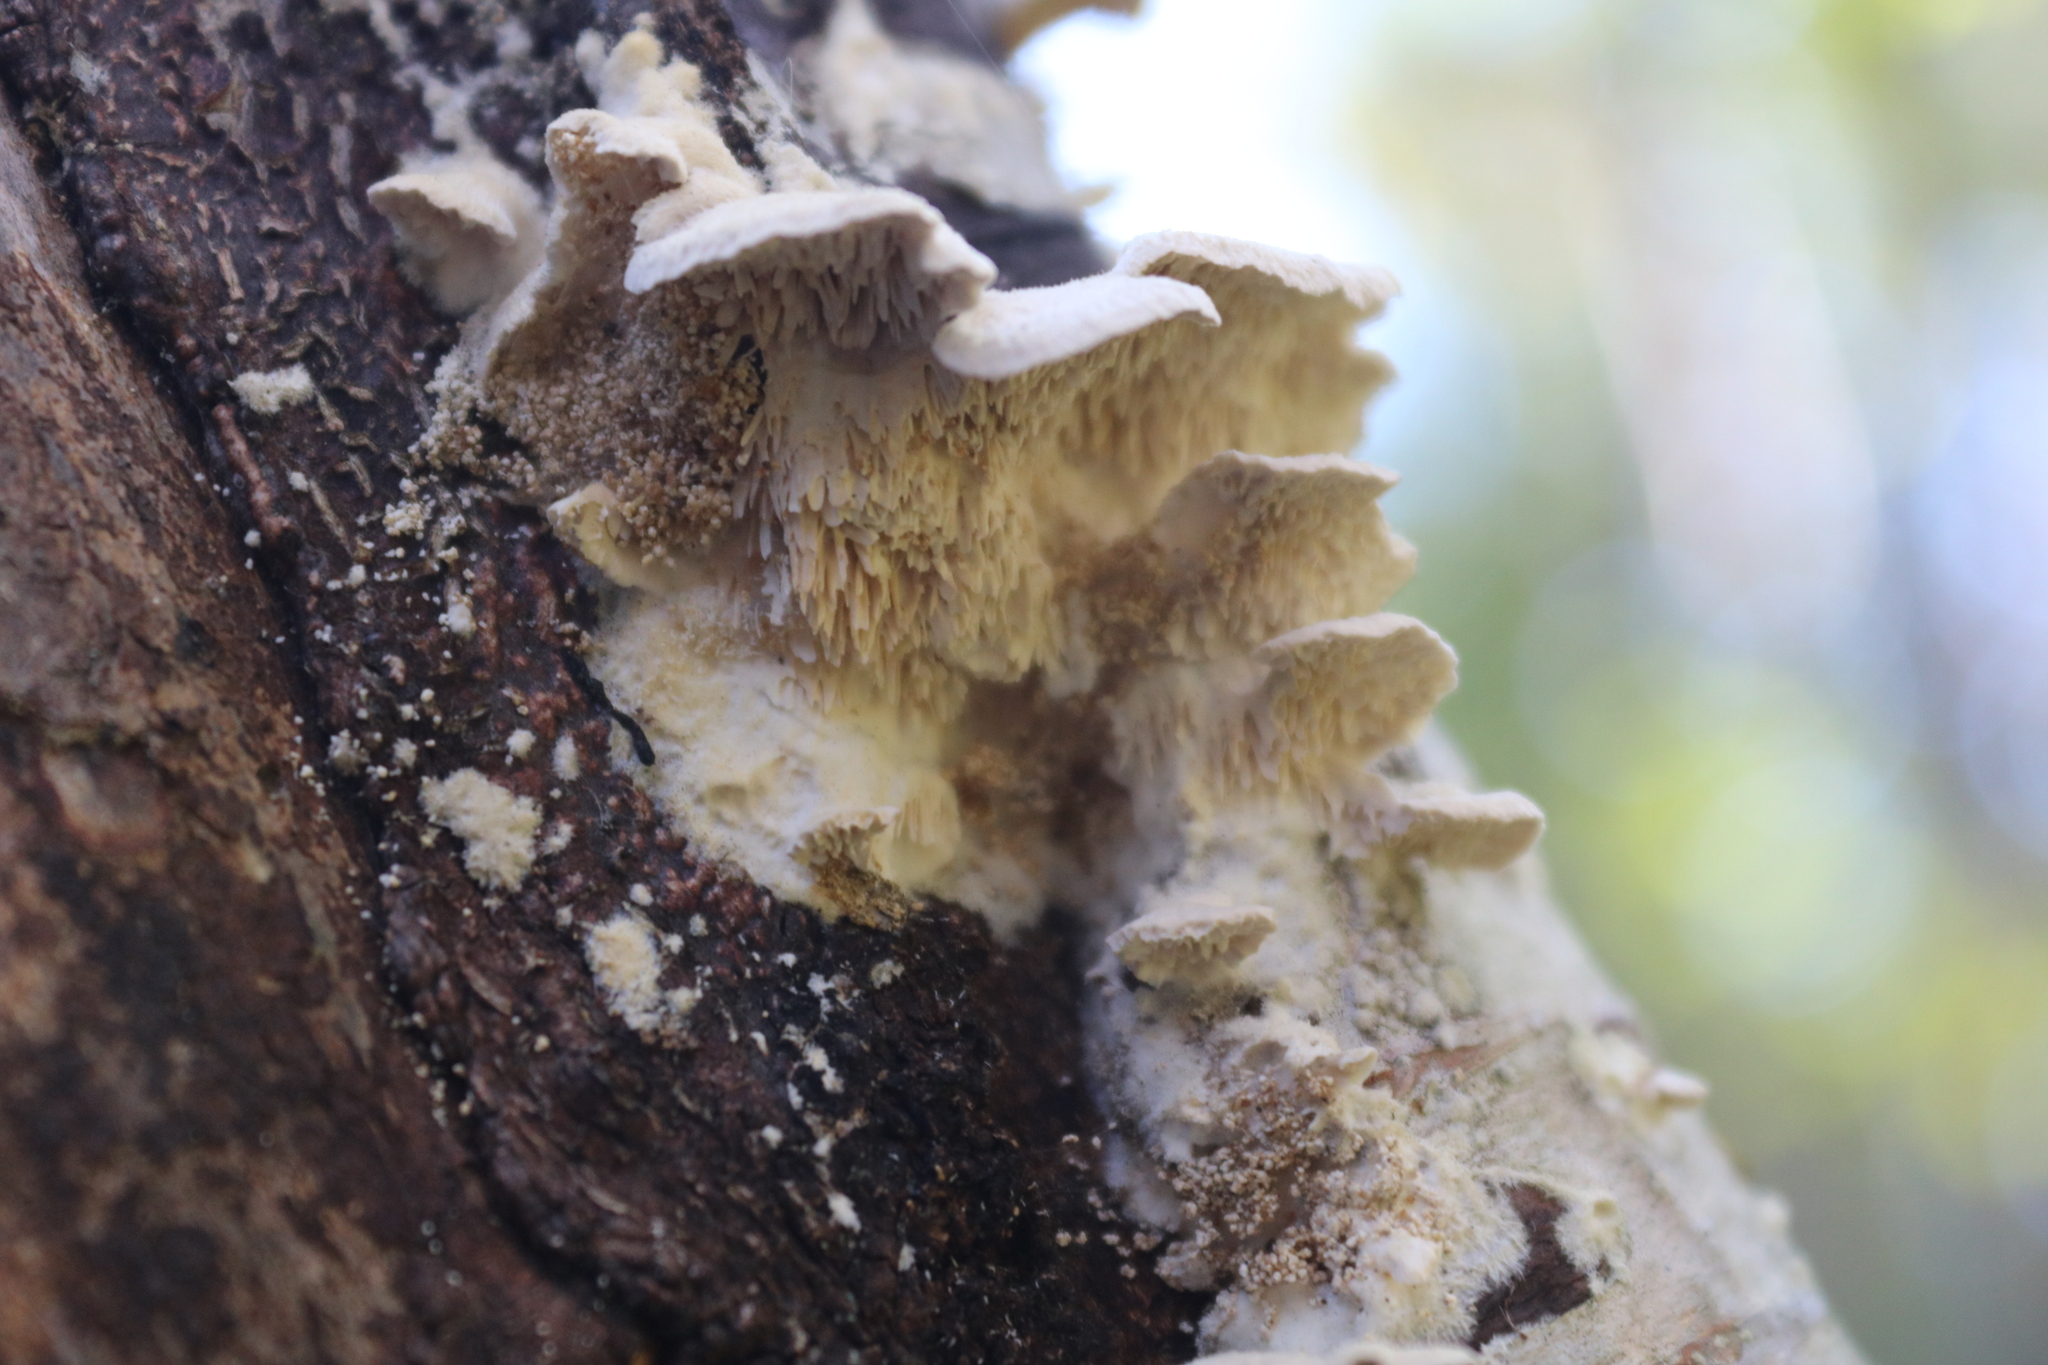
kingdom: Fungi
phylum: Basidiomycota
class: Agaricomycetes
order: Polyporales
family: Meruliaceae
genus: Irpiciporus
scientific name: Irpiciporus pachyodon
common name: Marshmallow polypore
